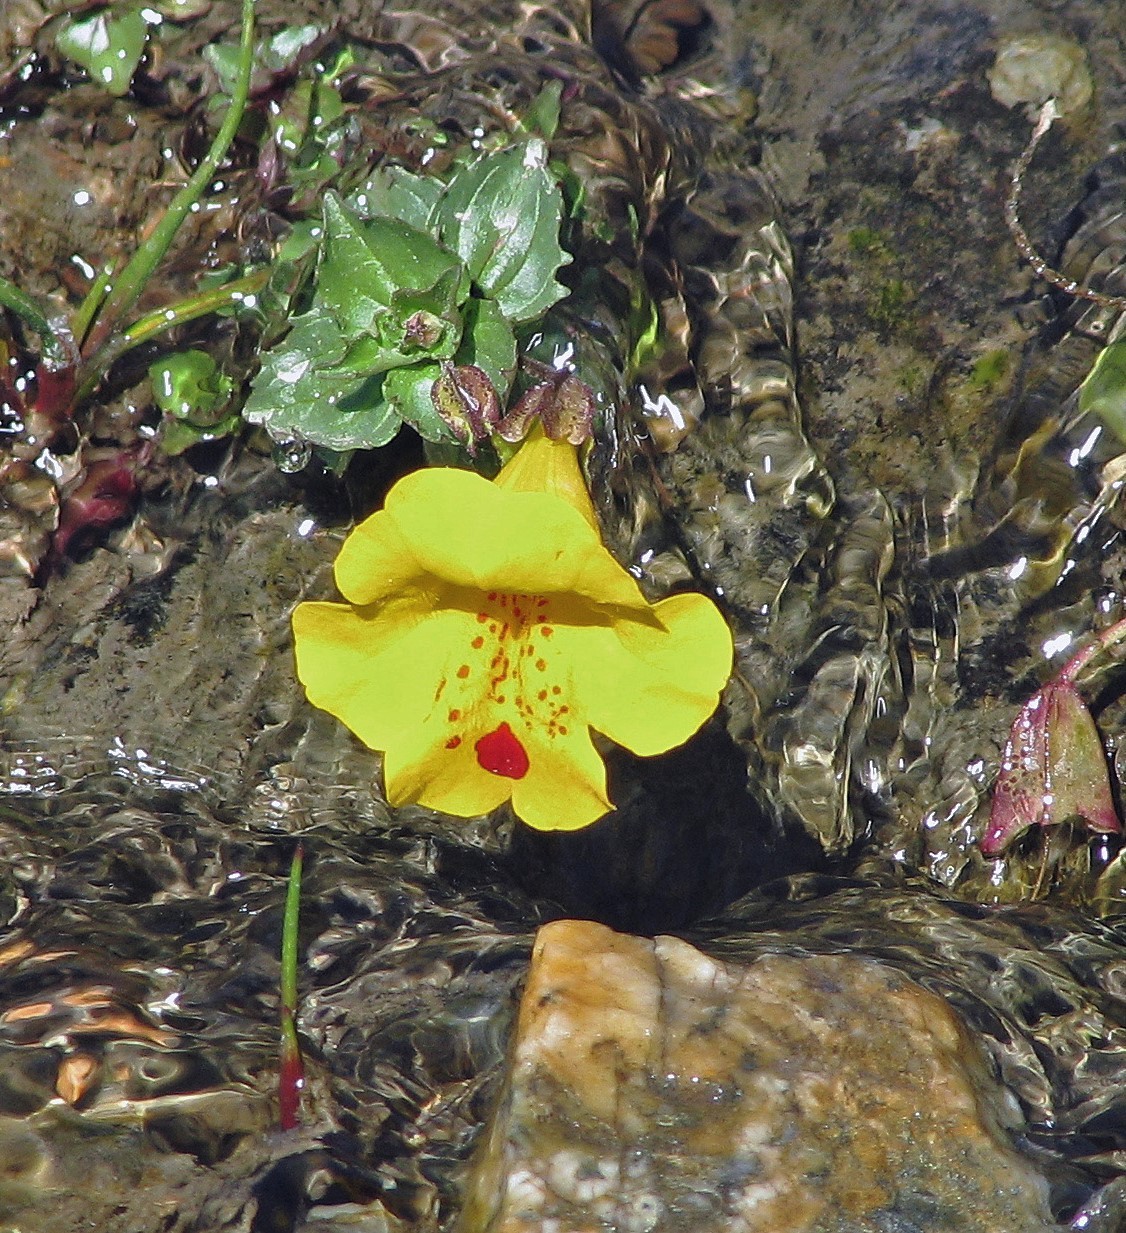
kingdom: Plantae
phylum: Tracheophyta
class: Magnoliopsida
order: Lamiales
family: Phrymaceae
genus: Erythranthe
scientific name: Erythranthe lutea
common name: Yellow monkey-flower
